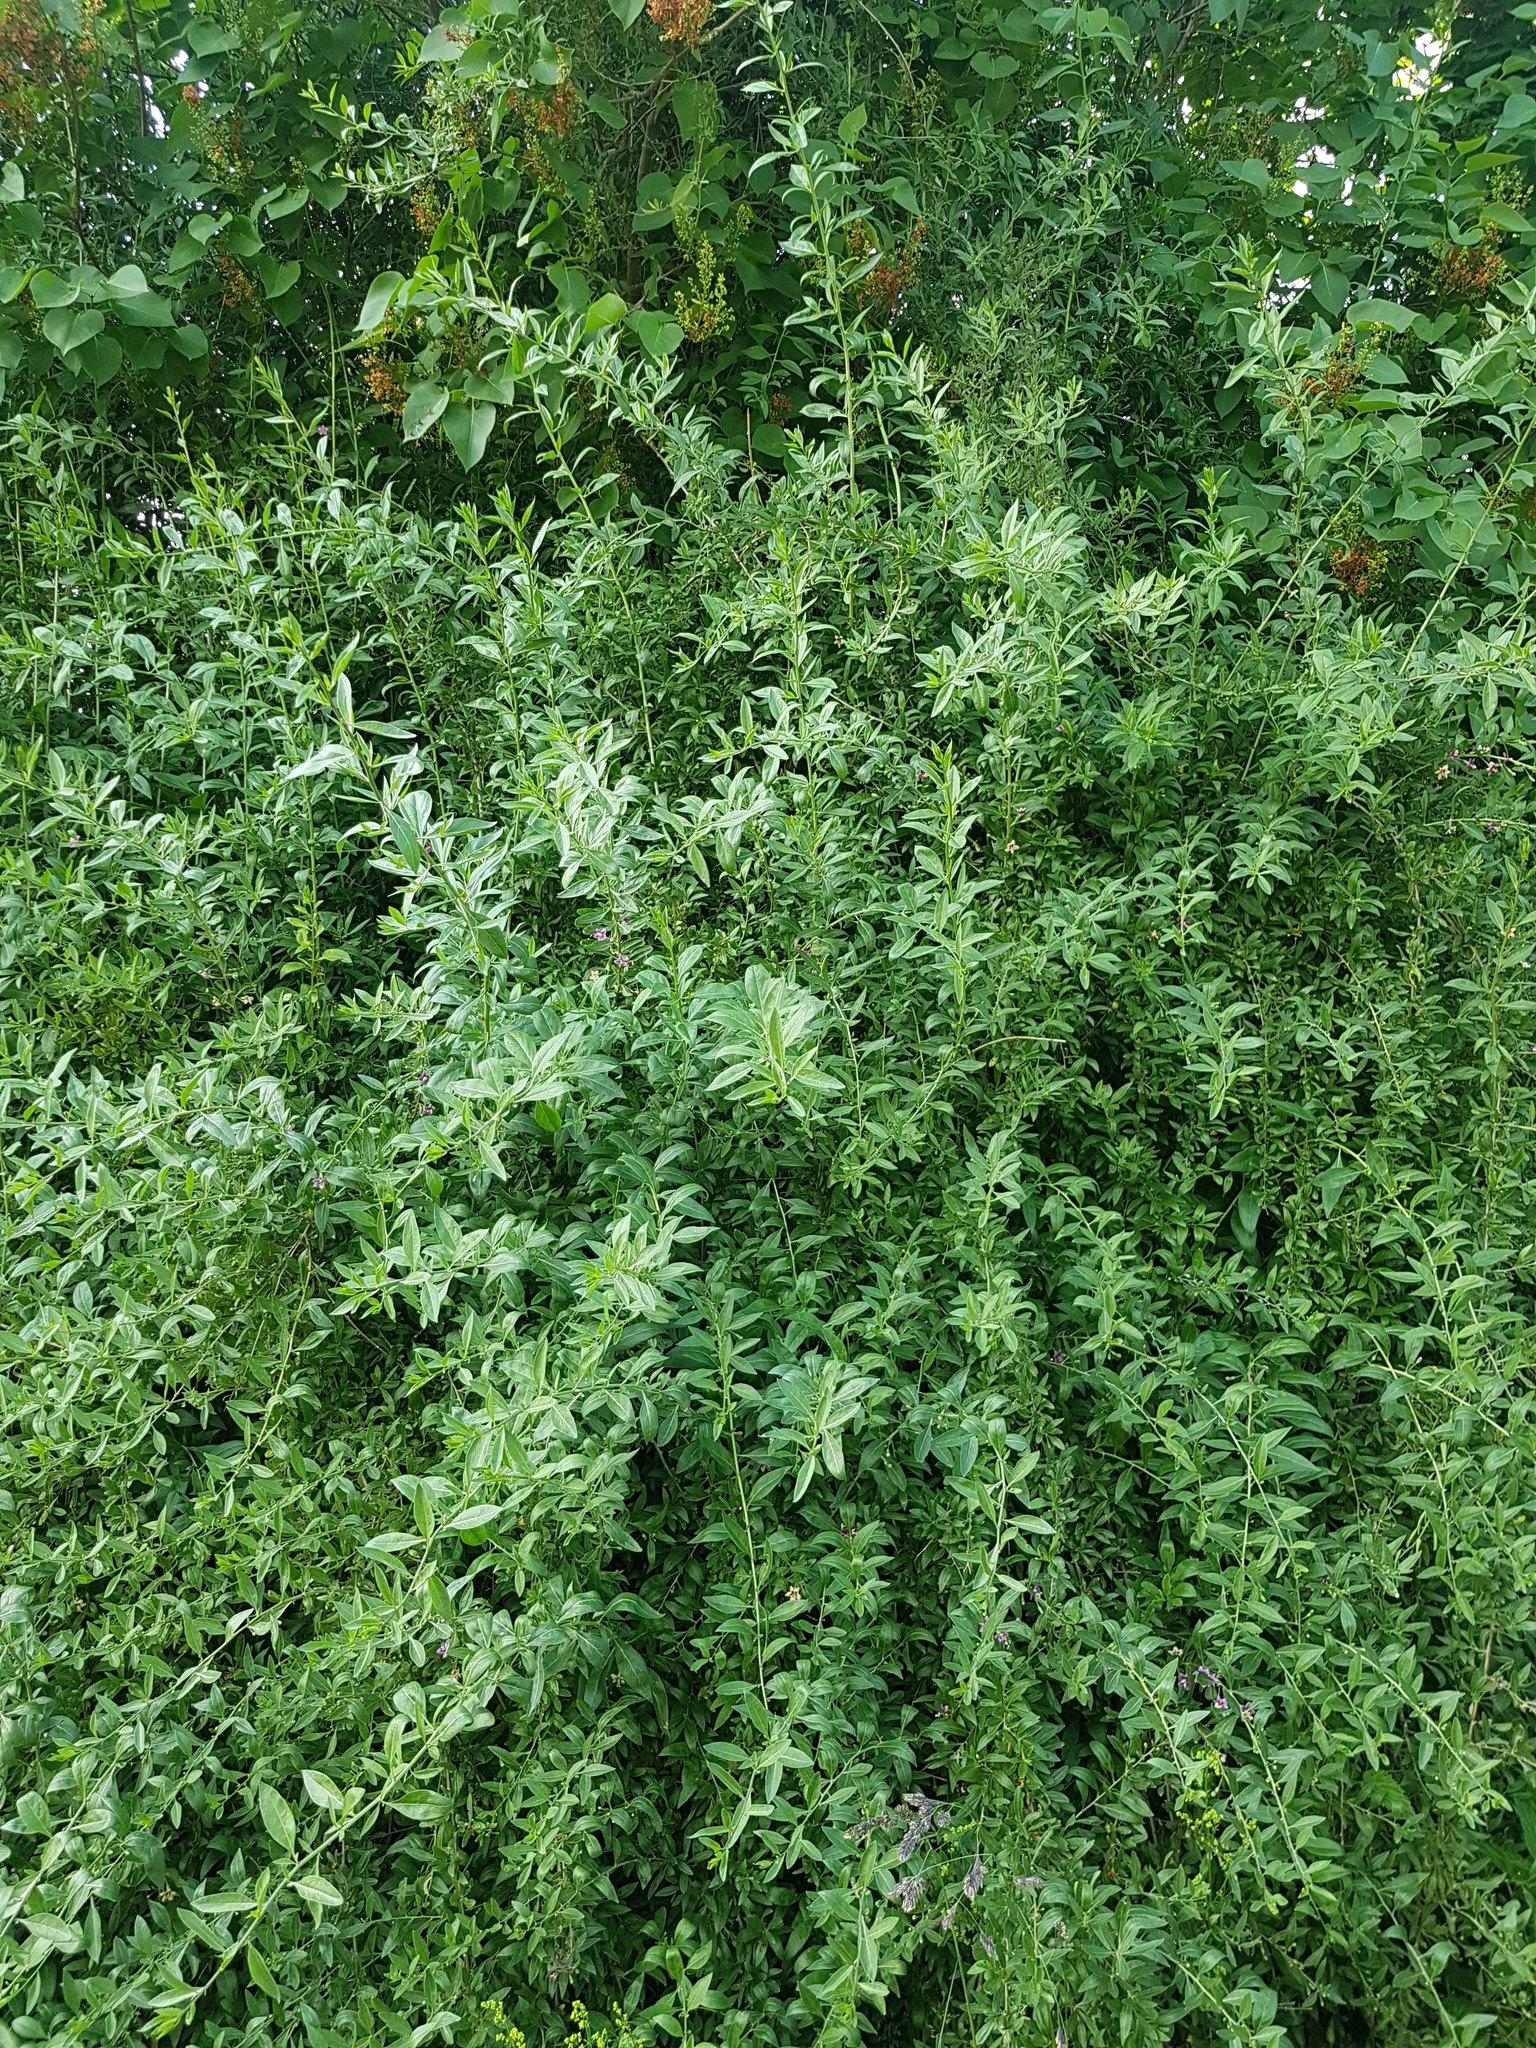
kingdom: Plantae
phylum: Tracheophyta
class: Magnoliopsida
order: Solanales
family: Solanaceae
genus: Lycium
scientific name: Lycium barbarum
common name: Duke of argyll's teaplant
